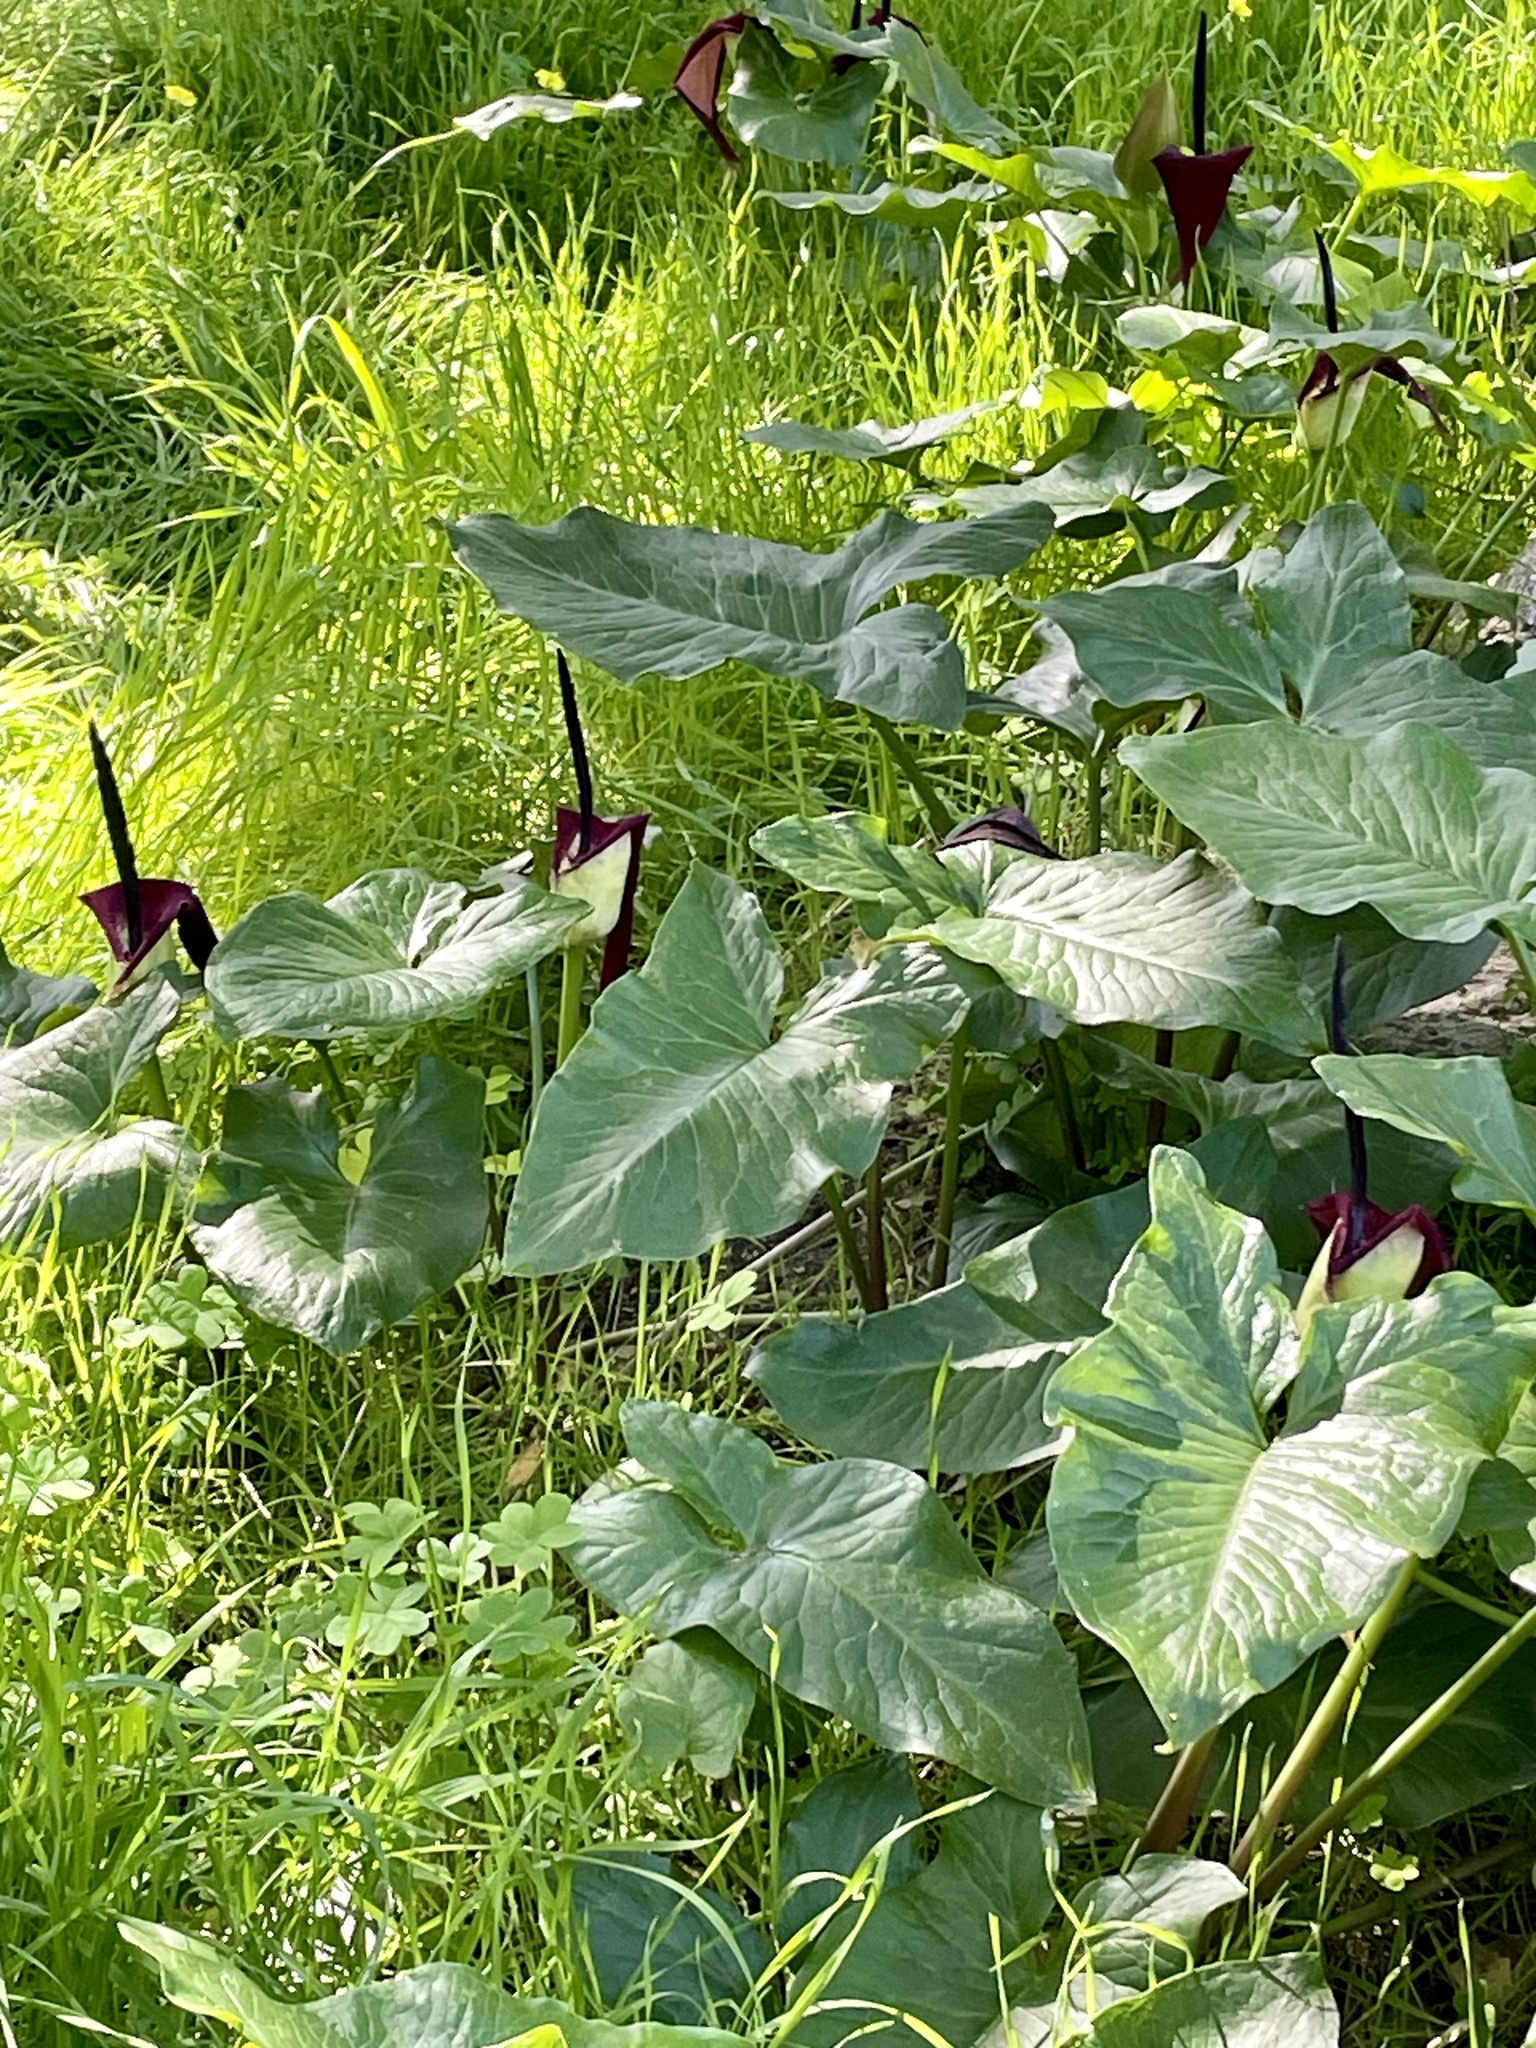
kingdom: Plantae
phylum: Tracheophyta
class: Liliopsida
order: Alismatales
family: Araceae
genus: Arum
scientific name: Arum palaestinum
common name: Solomon's lily
